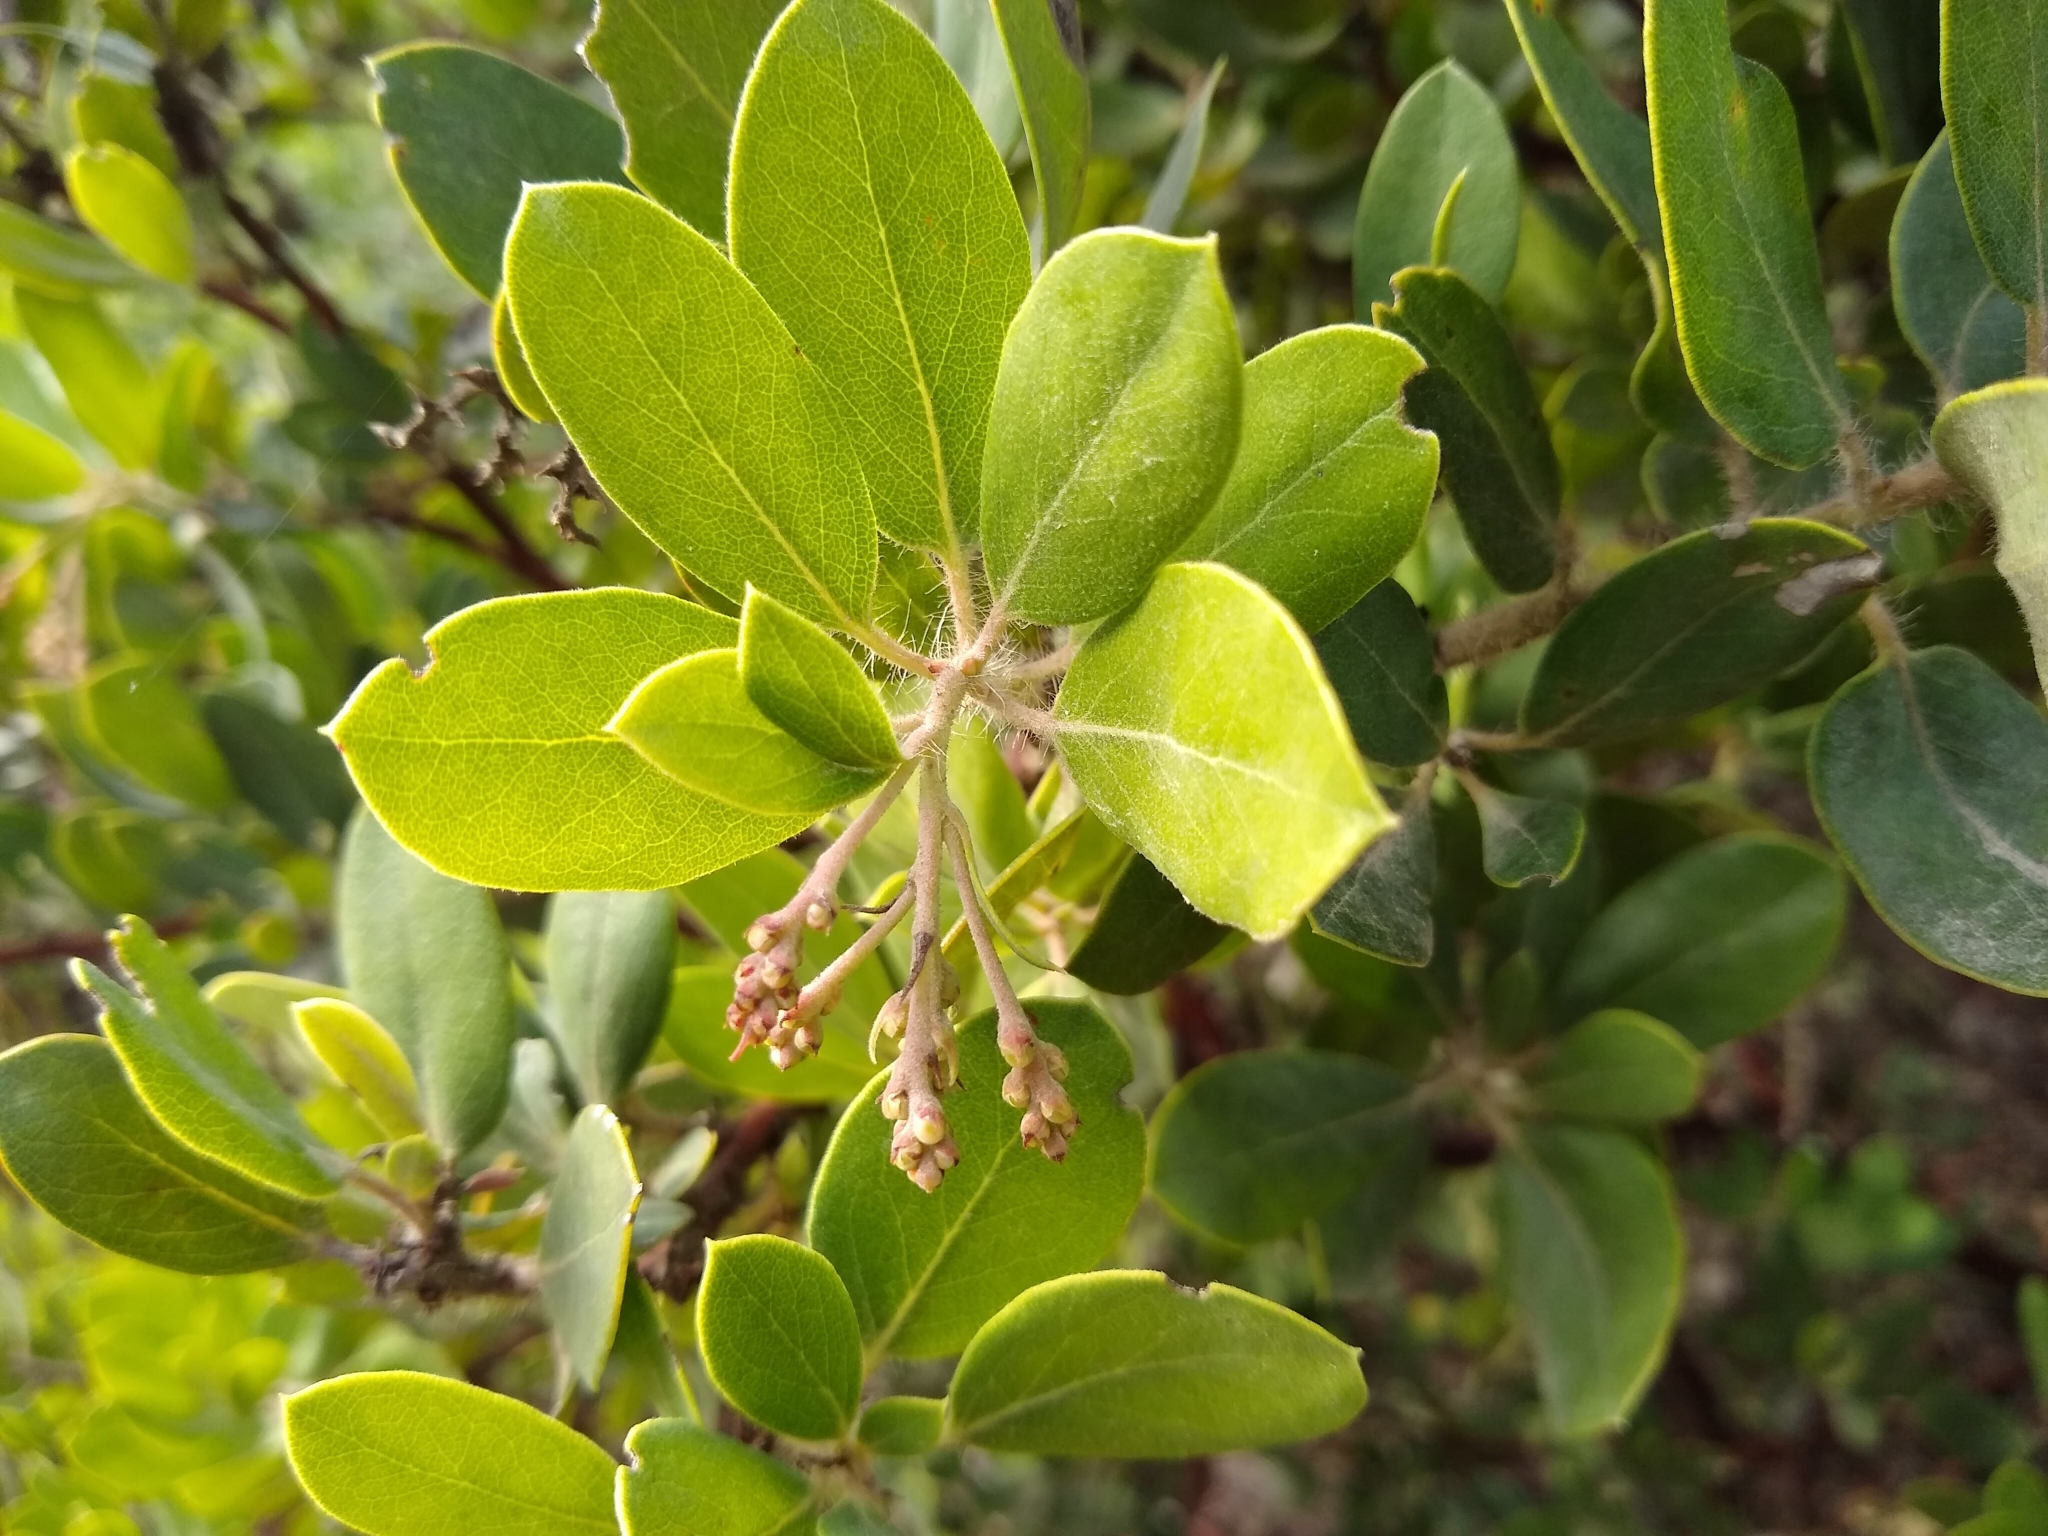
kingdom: Plantae
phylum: Tracheophyta
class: Magnoliopsida
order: Ericales
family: Ericaceae
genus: Arctostaphylos
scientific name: Arctostaphylos crustacea
